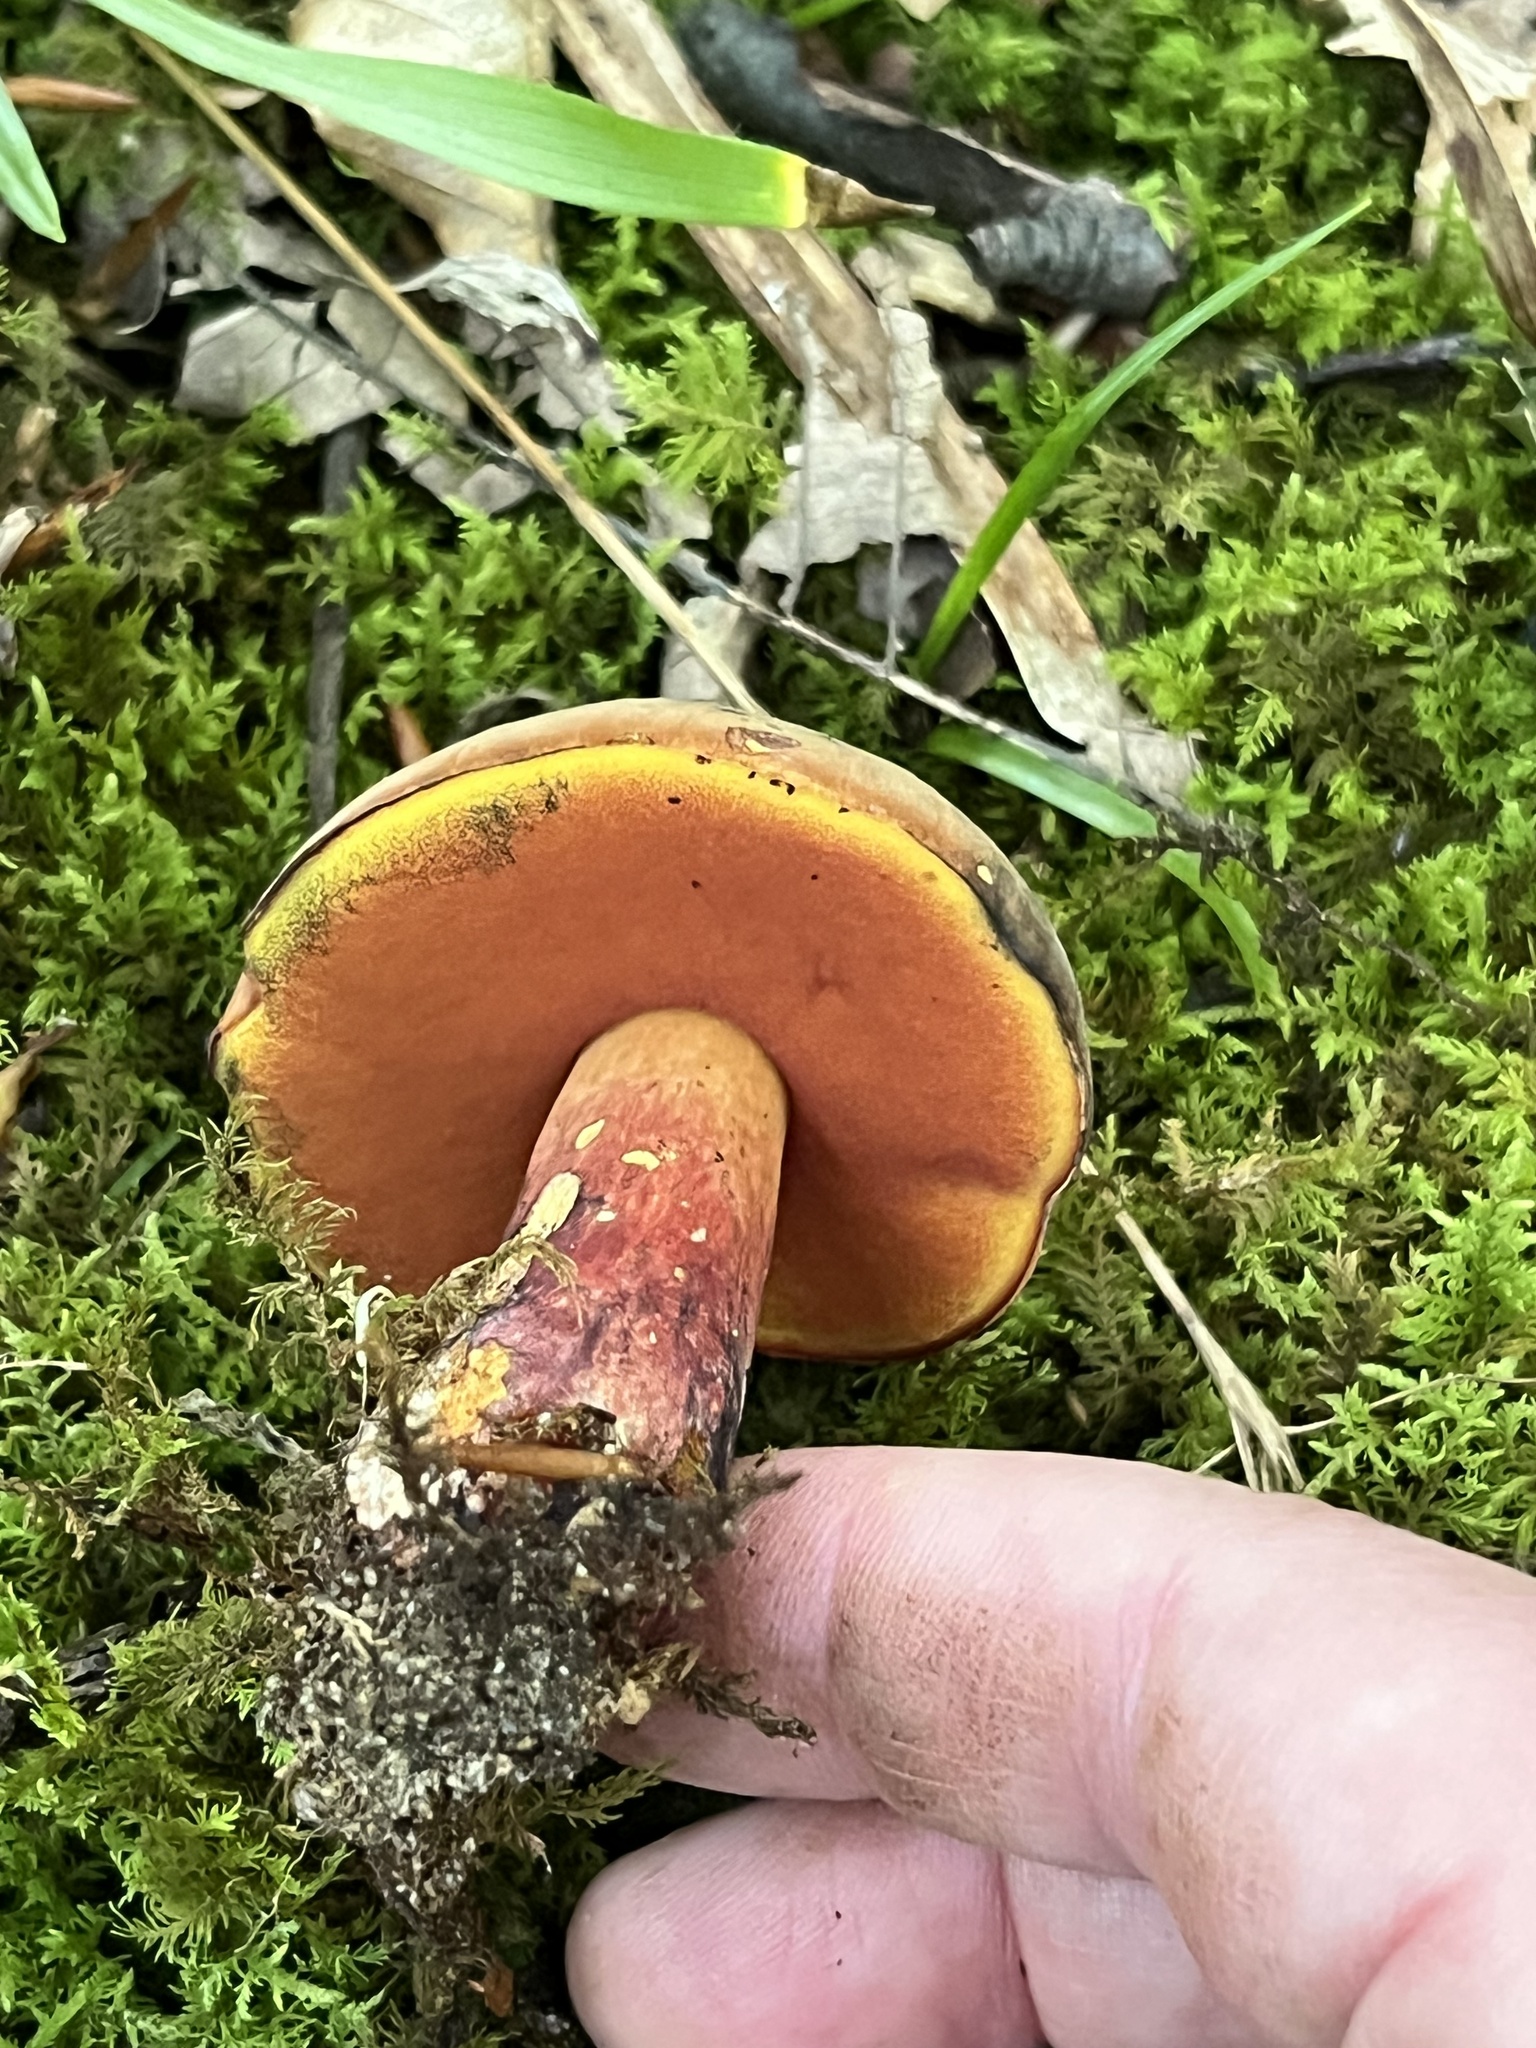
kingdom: Fungi
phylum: Basidiomycota
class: Agaricomycetes
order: Boletales
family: Boletaceae
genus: Boletus
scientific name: Boletus subvelutipes
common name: Red-mouth bolete
